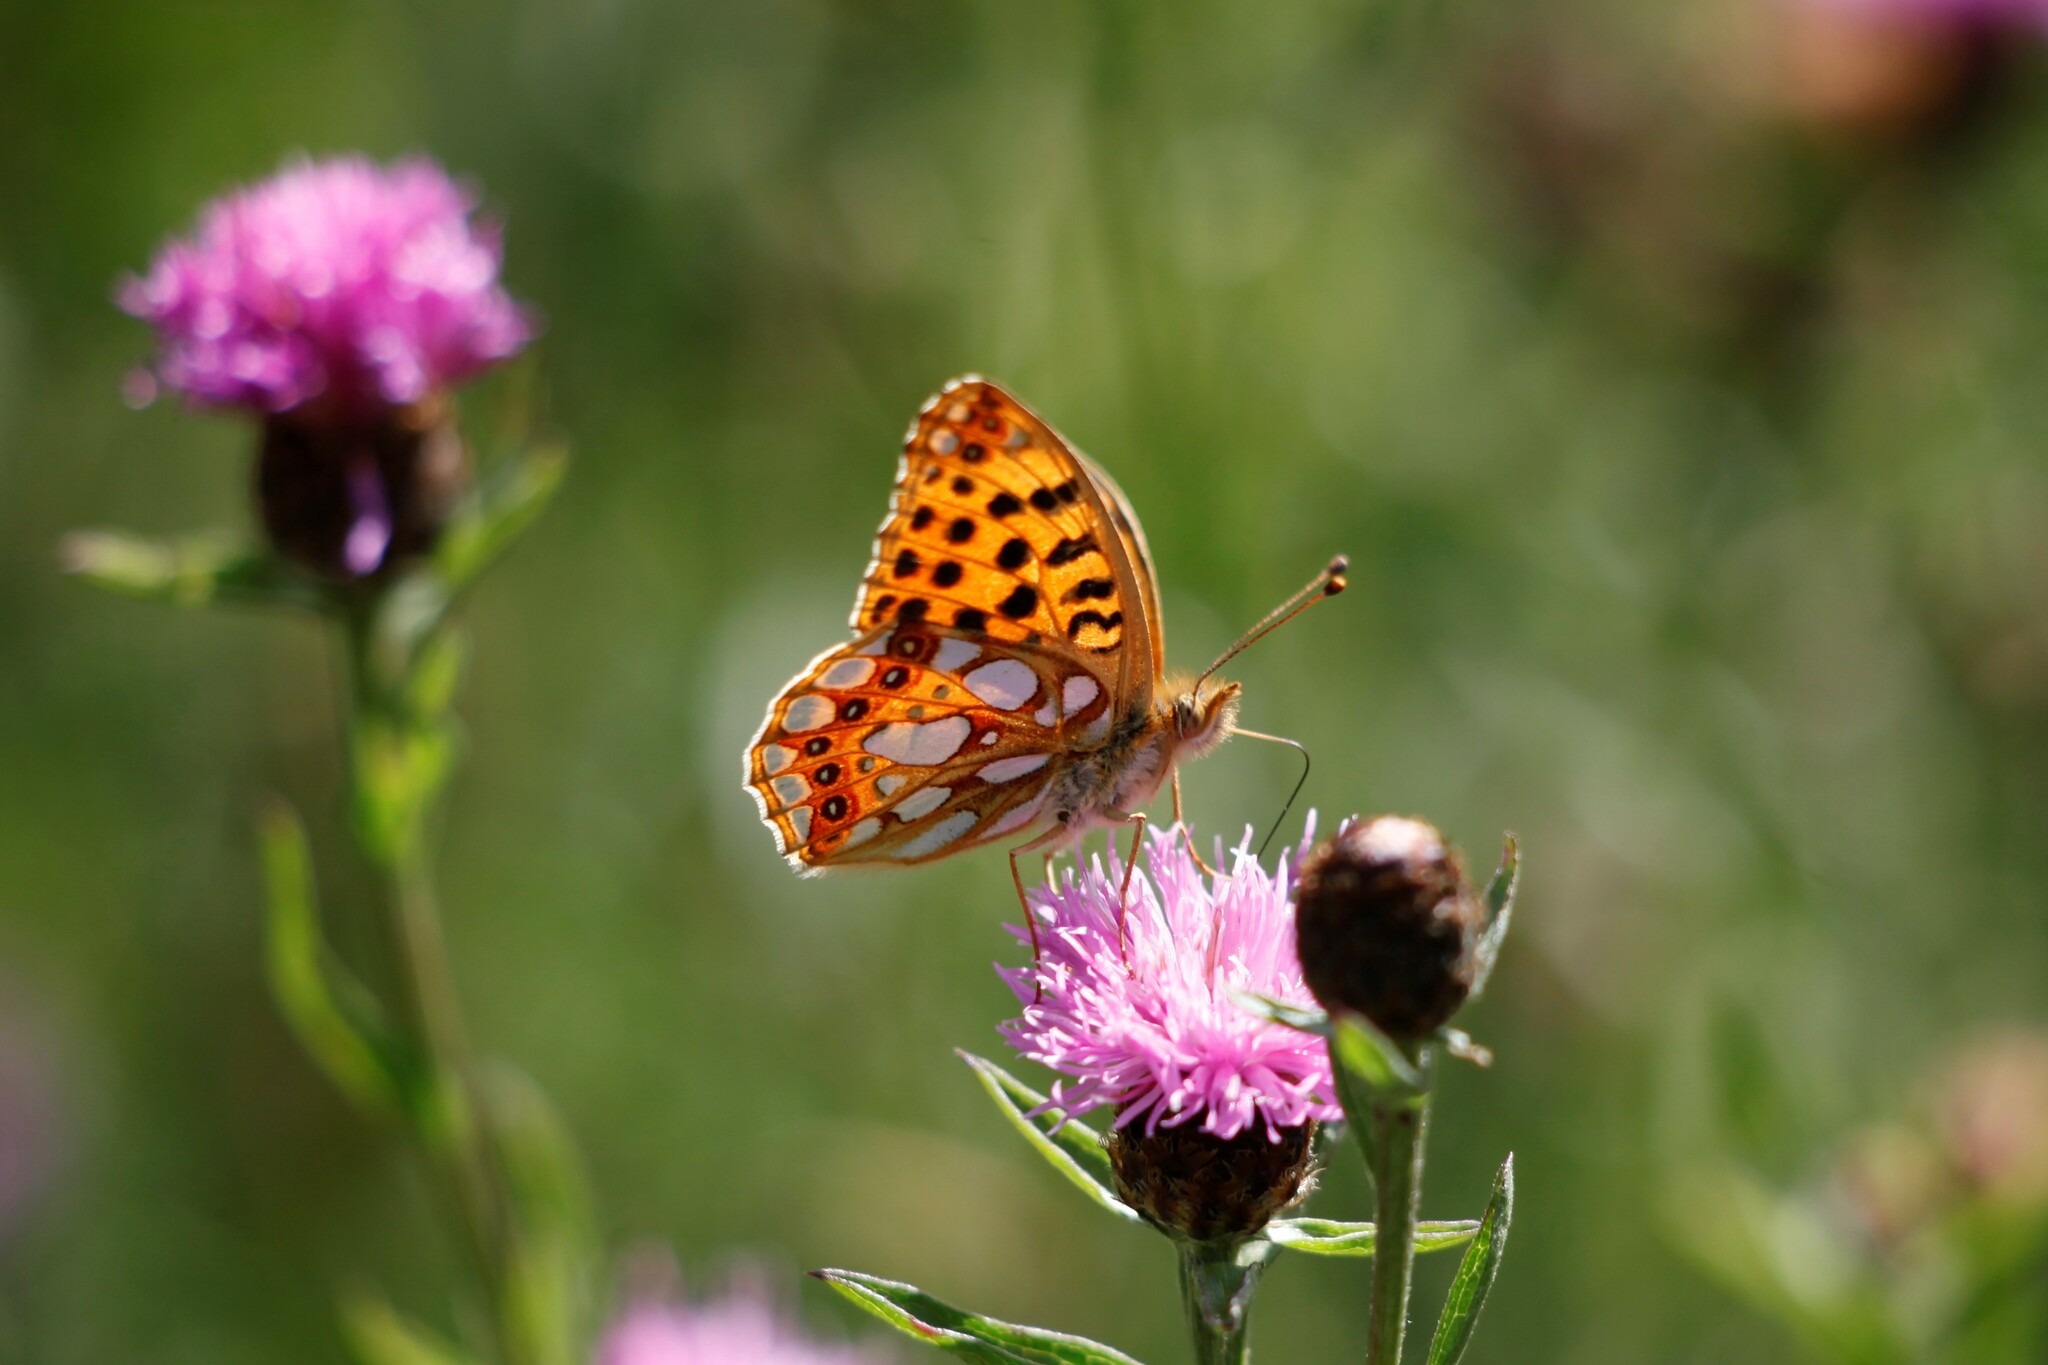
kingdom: Animalia
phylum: Arthropoda
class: Insecta
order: Lepidoptera
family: Nymphalidae
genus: Issoria
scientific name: Issoria lathonia
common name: Queen of spain fritillary
